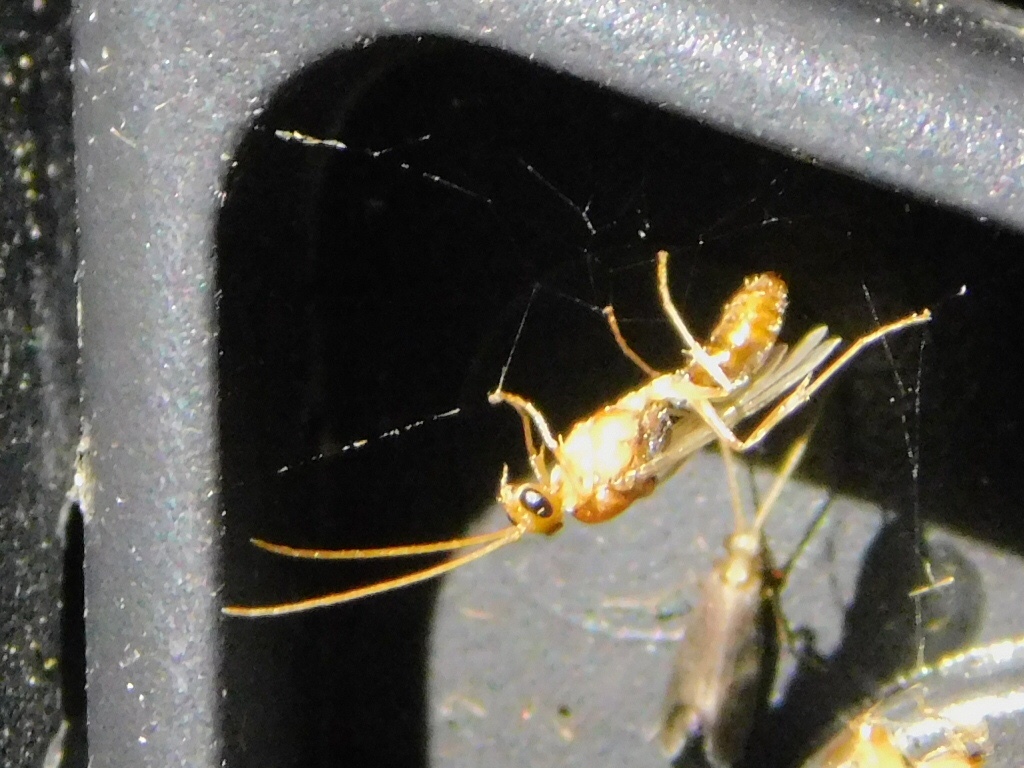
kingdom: Animalia
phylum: Arthropoda
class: Insecta
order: Hymenoptera
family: Formicidae
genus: Odontomachus
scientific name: Odontomachus ruginodis
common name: Trapjaw ant
